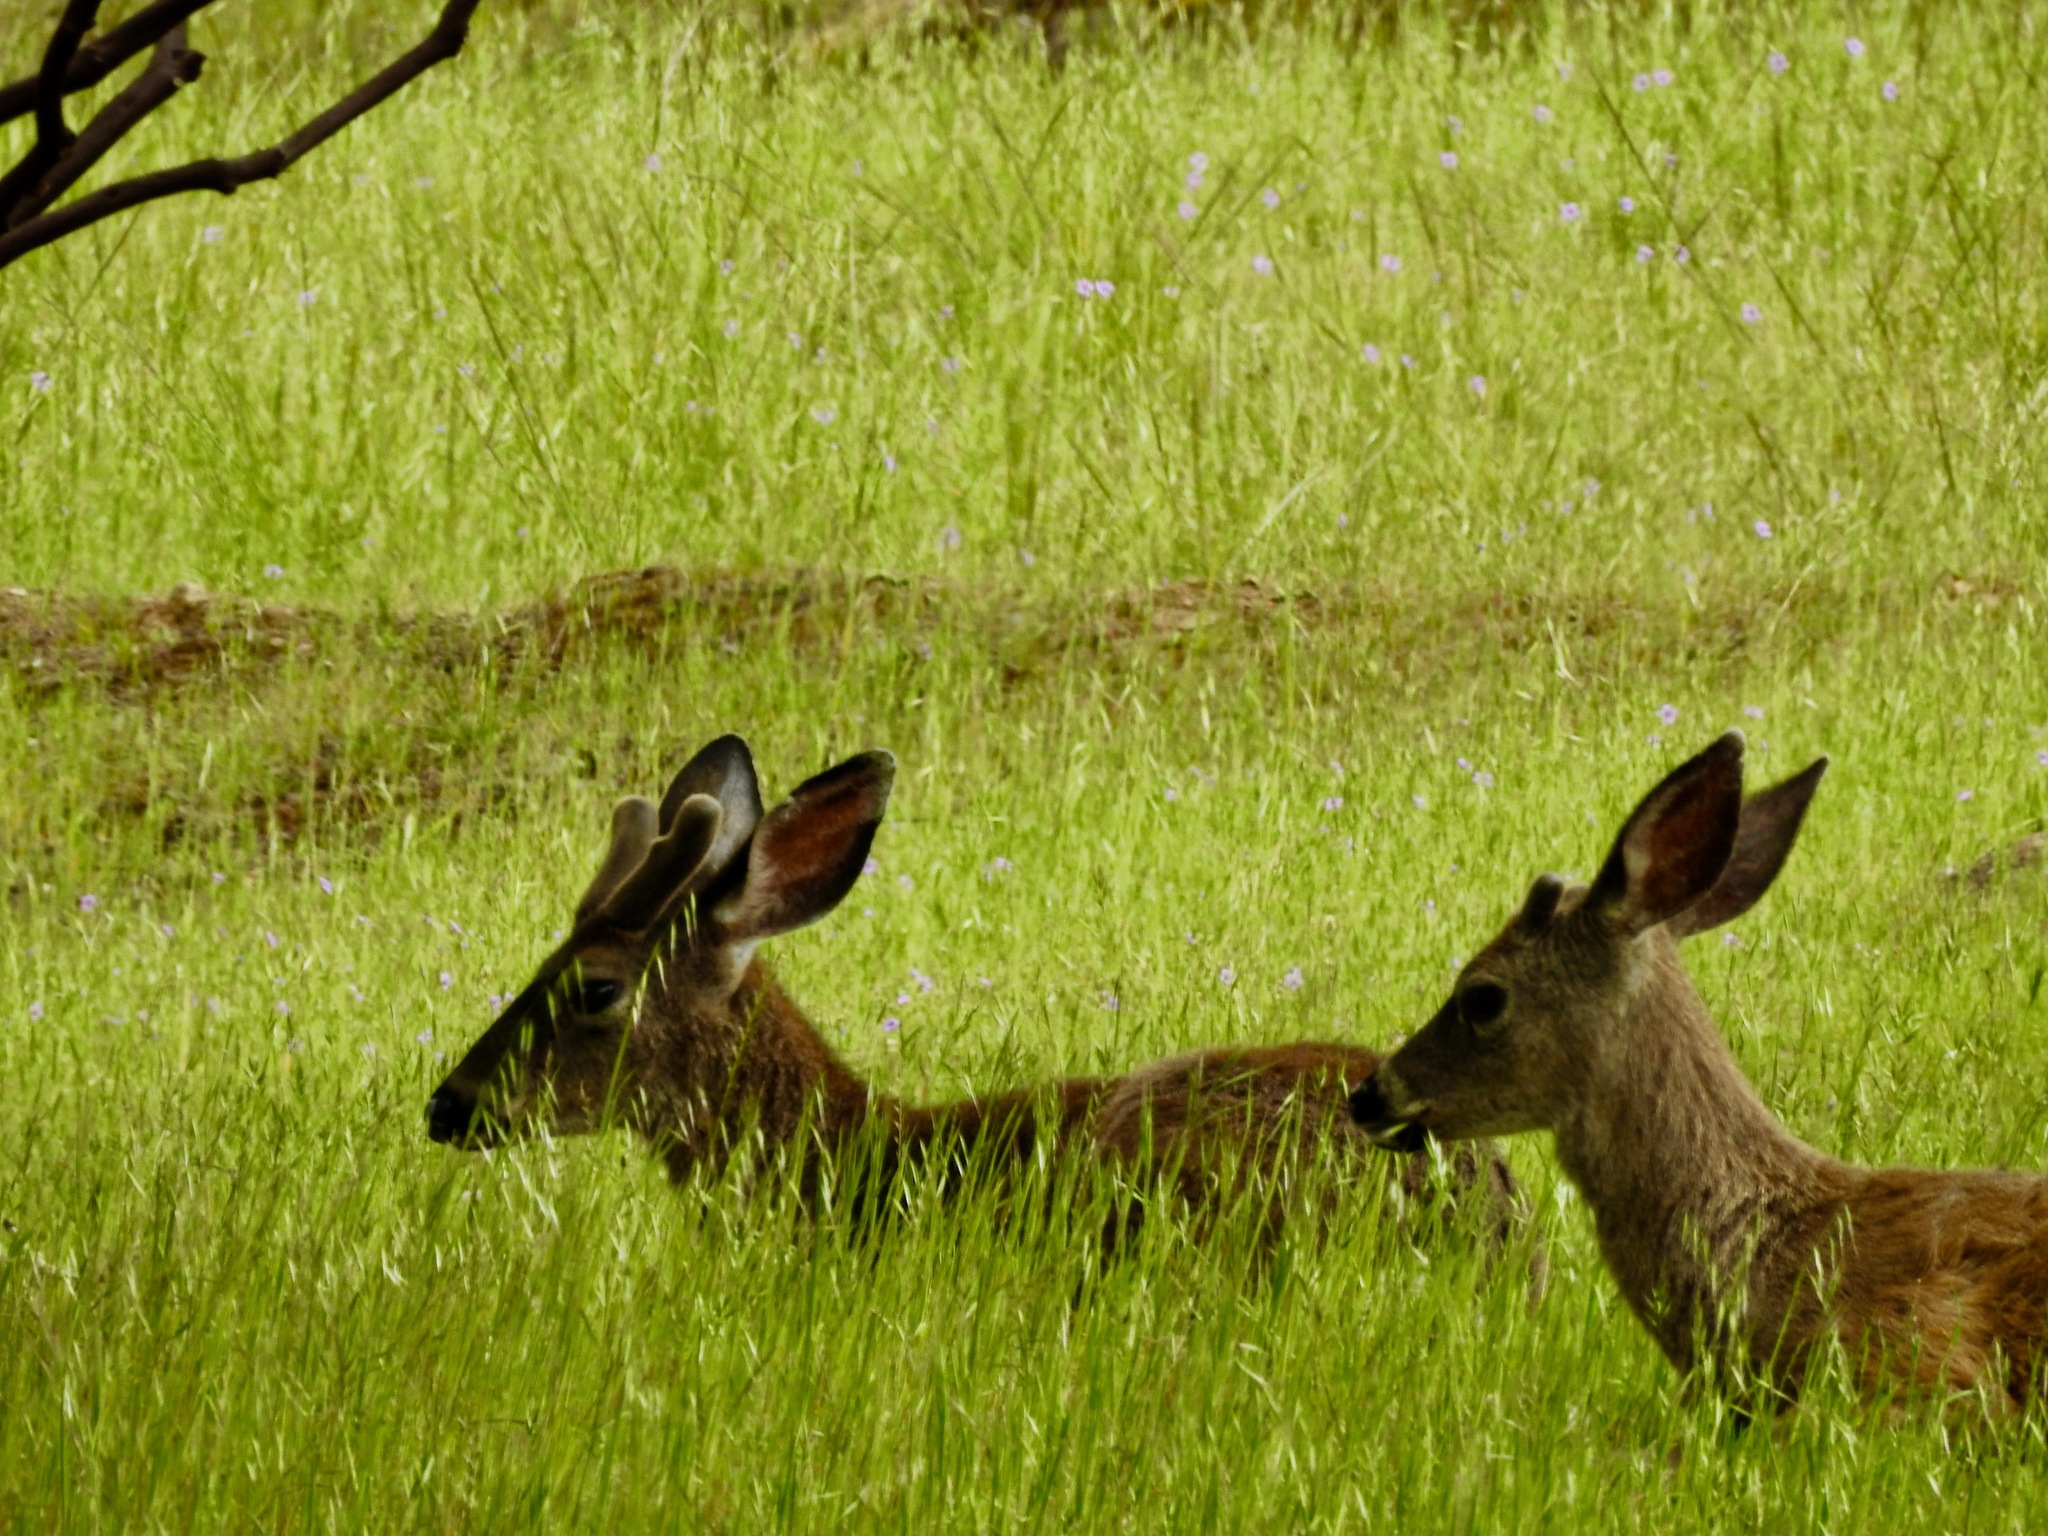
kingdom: Animalia
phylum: Chordata
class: Mammalia
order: Artiodactyla
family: Cervidae
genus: Odocoileus
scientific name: Odocoileus hemionus
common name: Mule deer
